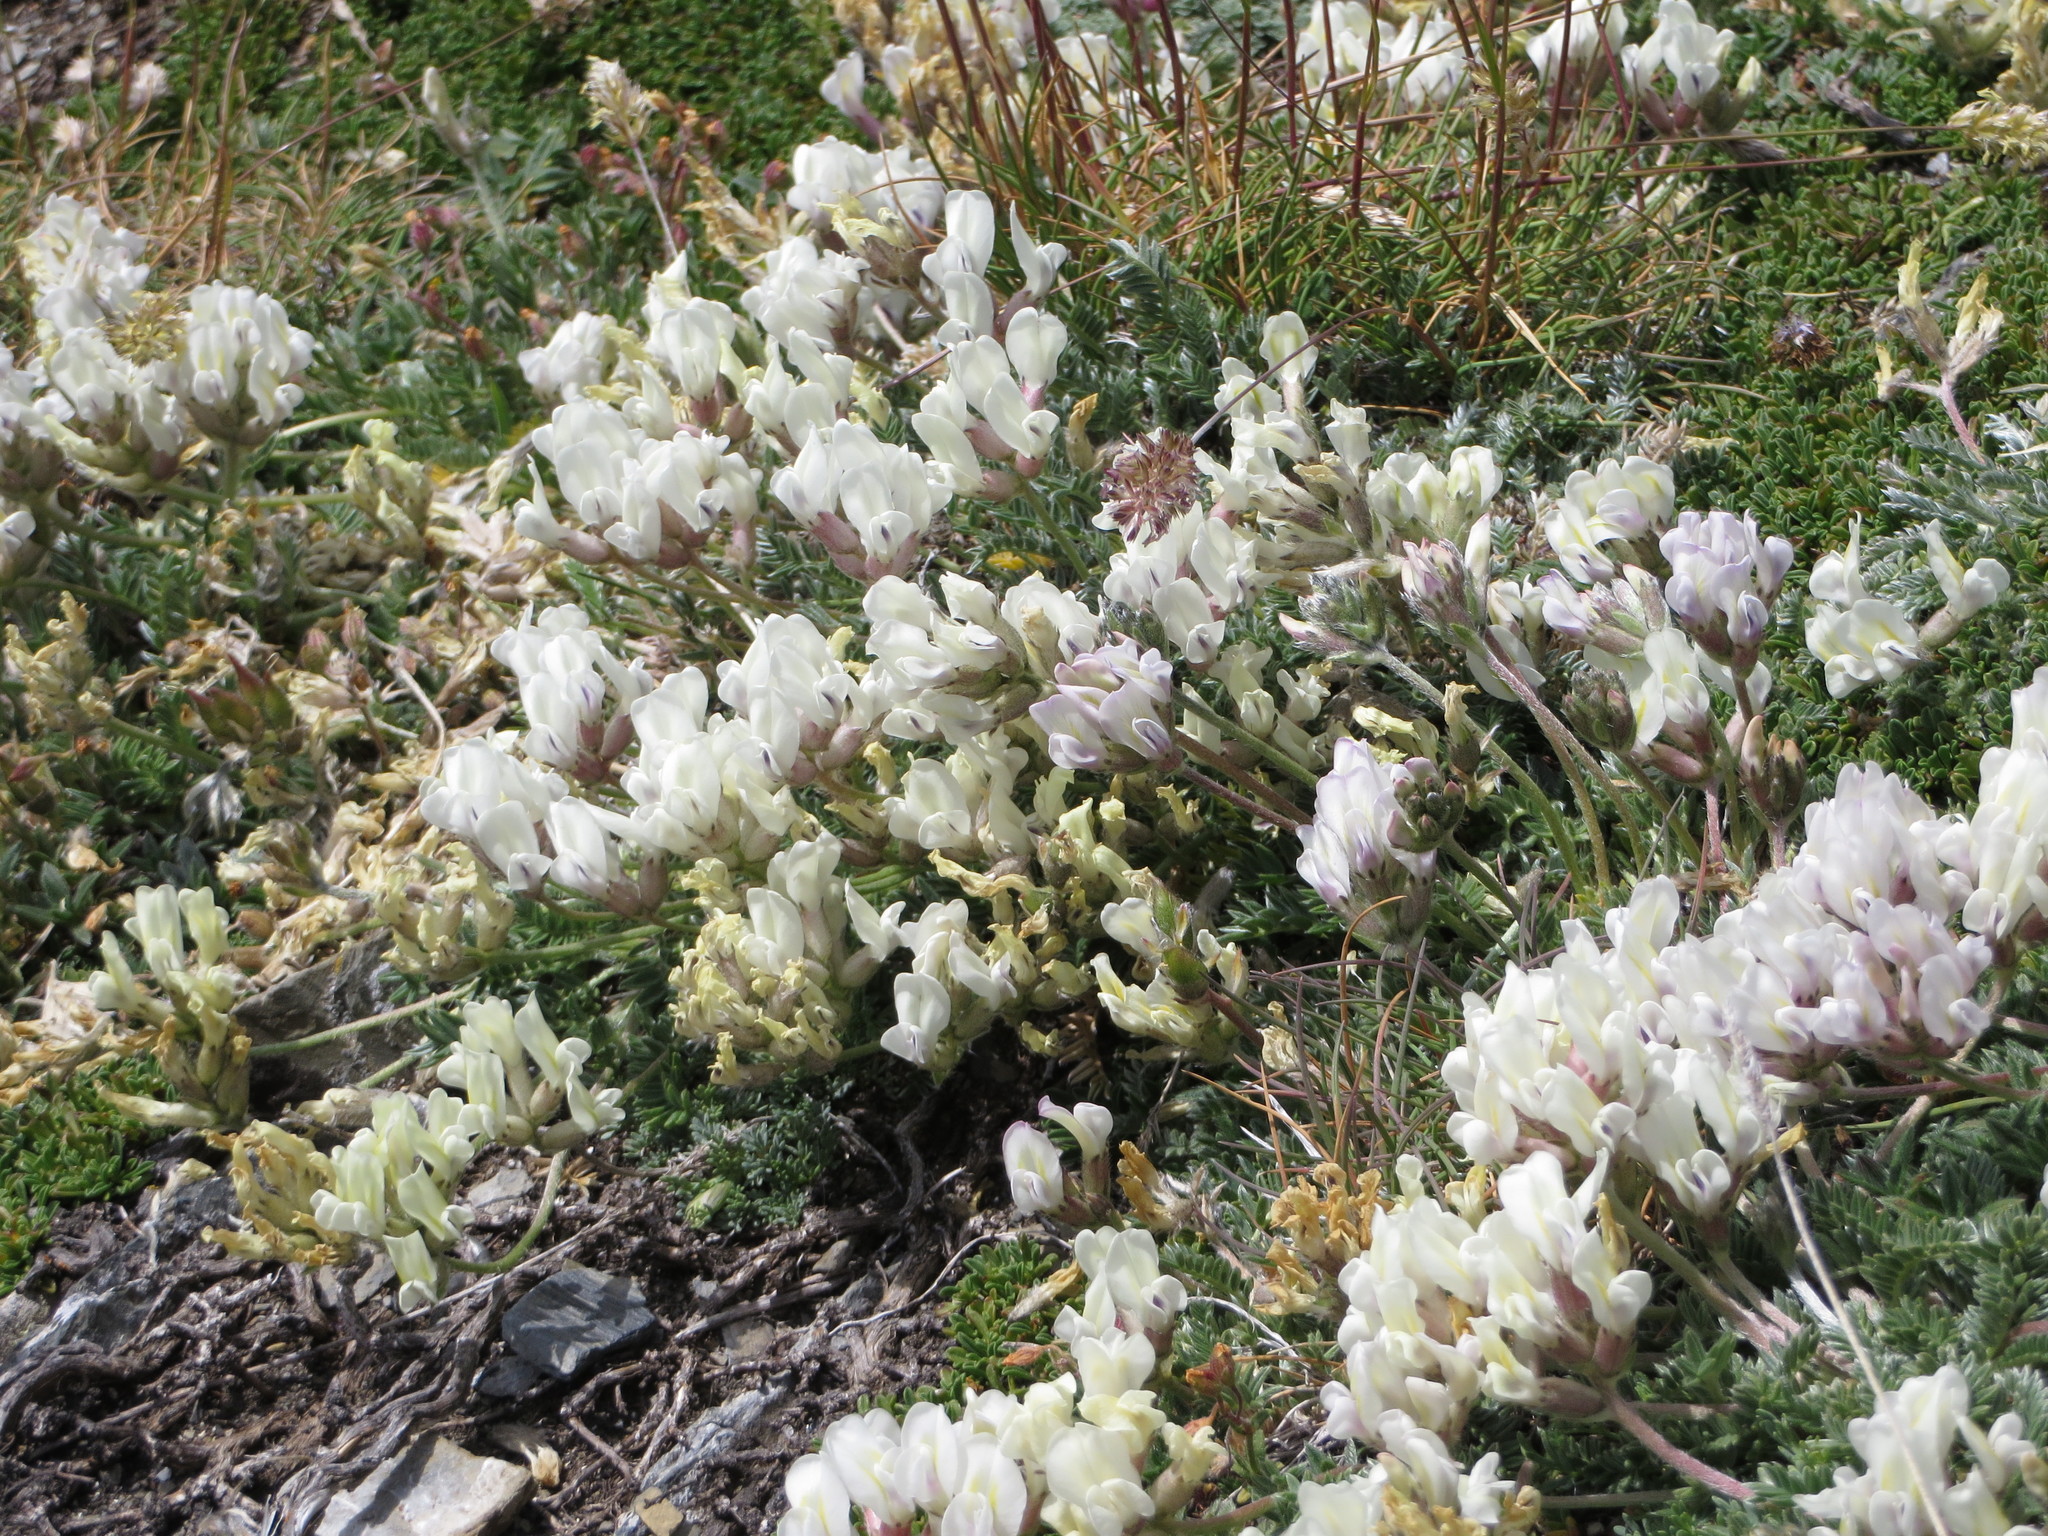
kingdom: Plantae
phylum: Tracheophyta
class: Magnoliopsida
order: Fabales
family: Fabaceae
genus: Oxytropis
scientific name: Oxytropis campestris
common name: Field locoweed
